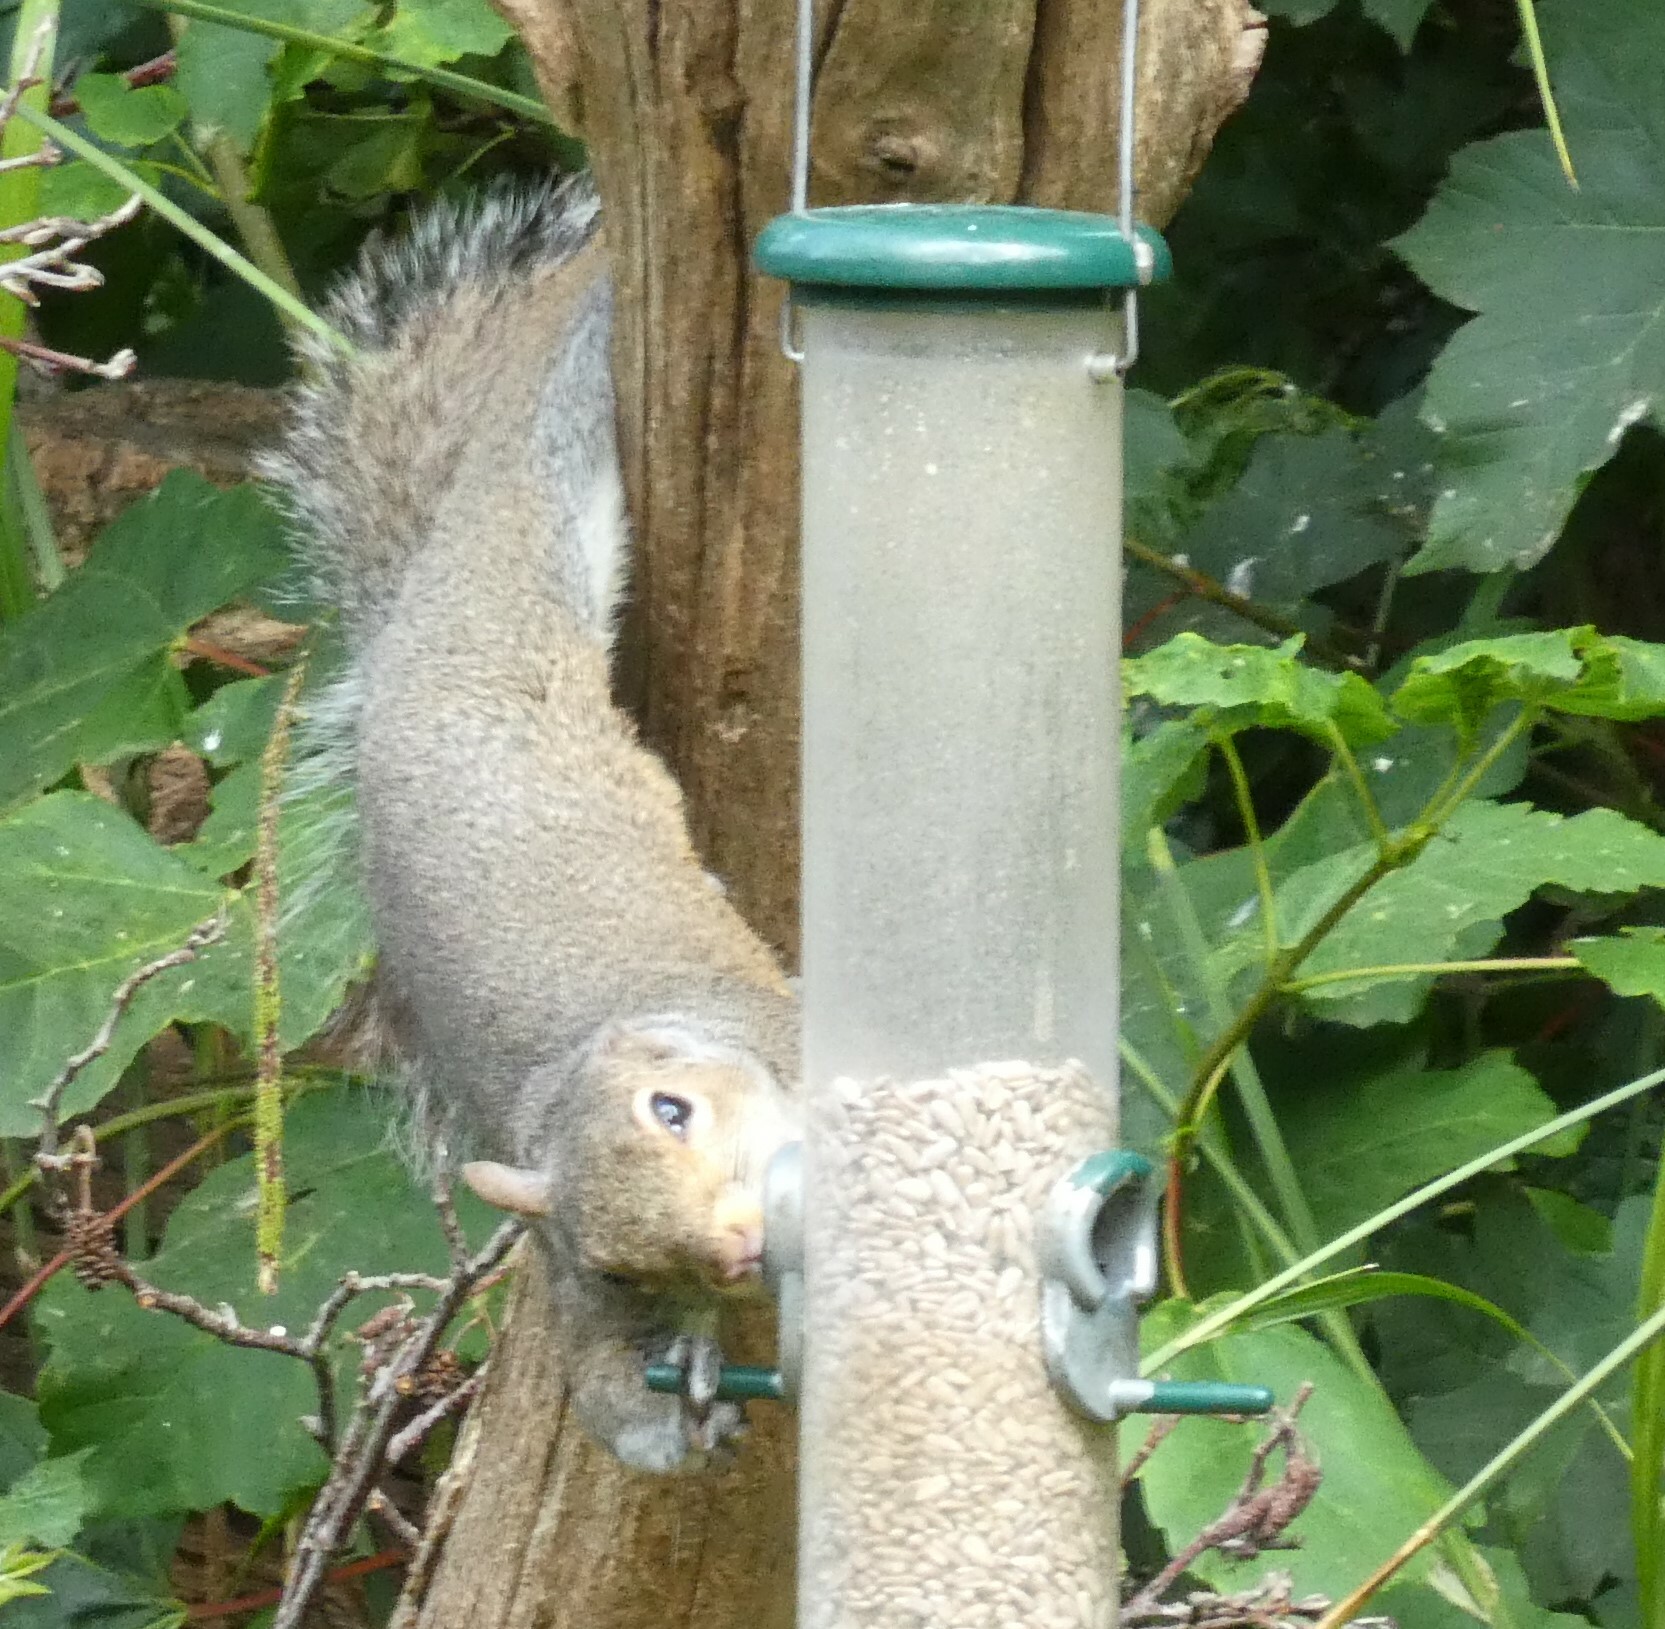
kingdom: Animalia
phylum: Chordata
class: Mammalia
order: Rodentia
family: Sciuridae
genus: Sciurus
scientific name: Sciurus carolinensis
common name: Eastern gray squirrel
